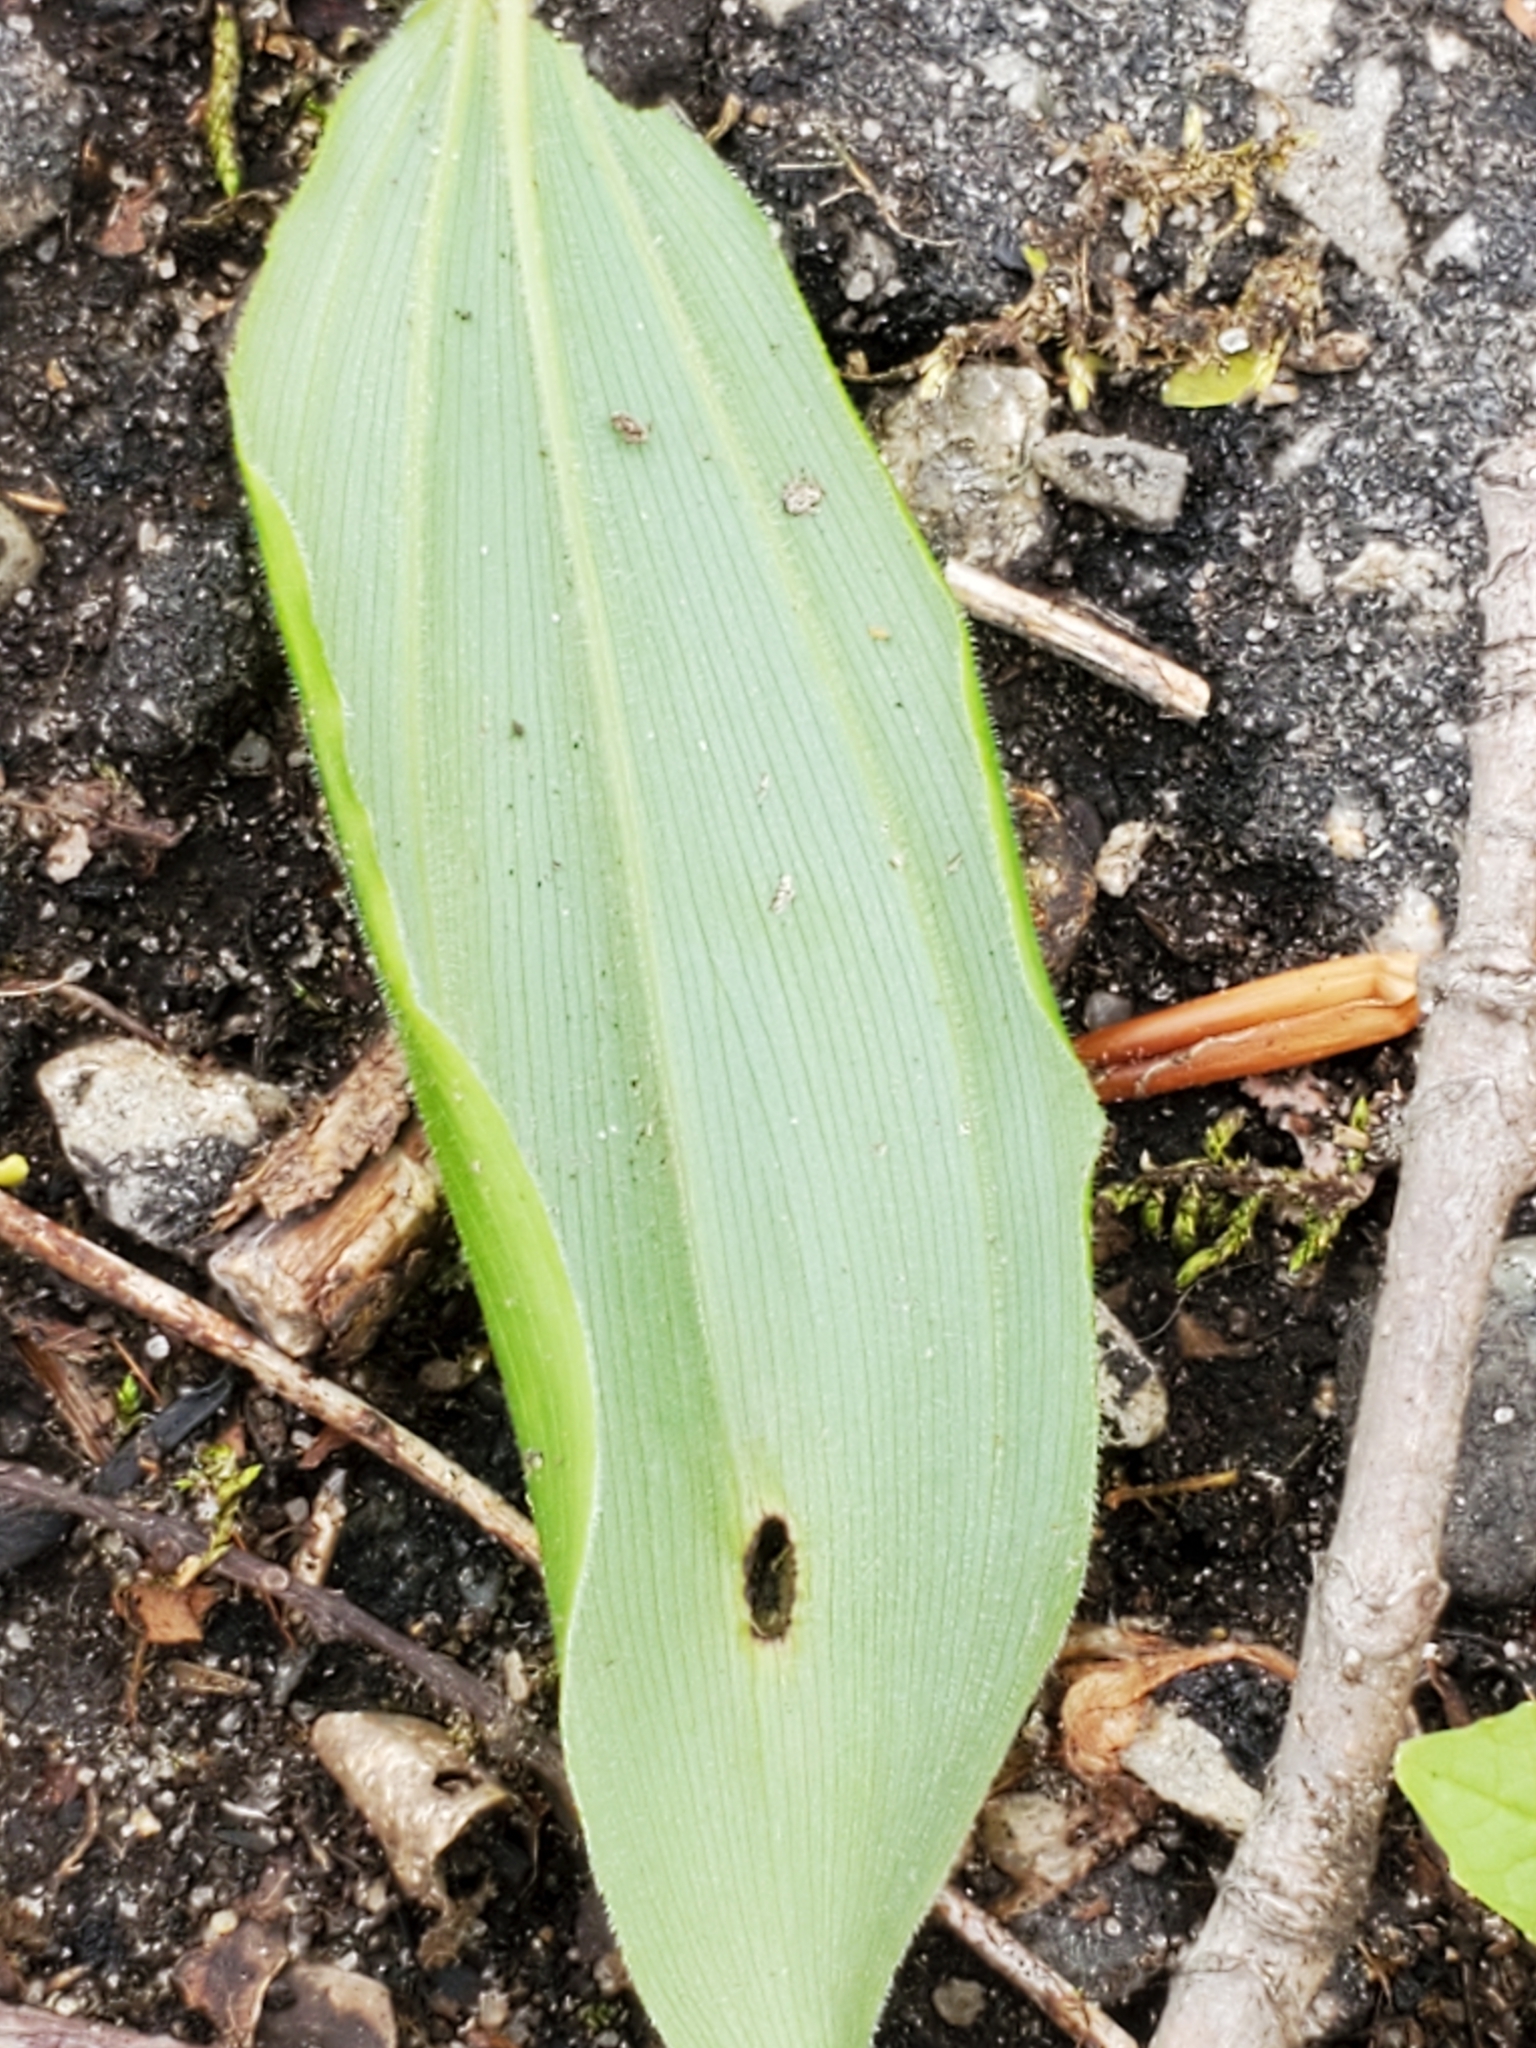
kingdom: Plantae
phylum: Tracheophyta
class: Liliopsida
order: Asparagales
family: Asparagaceae
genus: Maianthemum
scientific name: Maianthemum racemosum
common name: False spikenard
